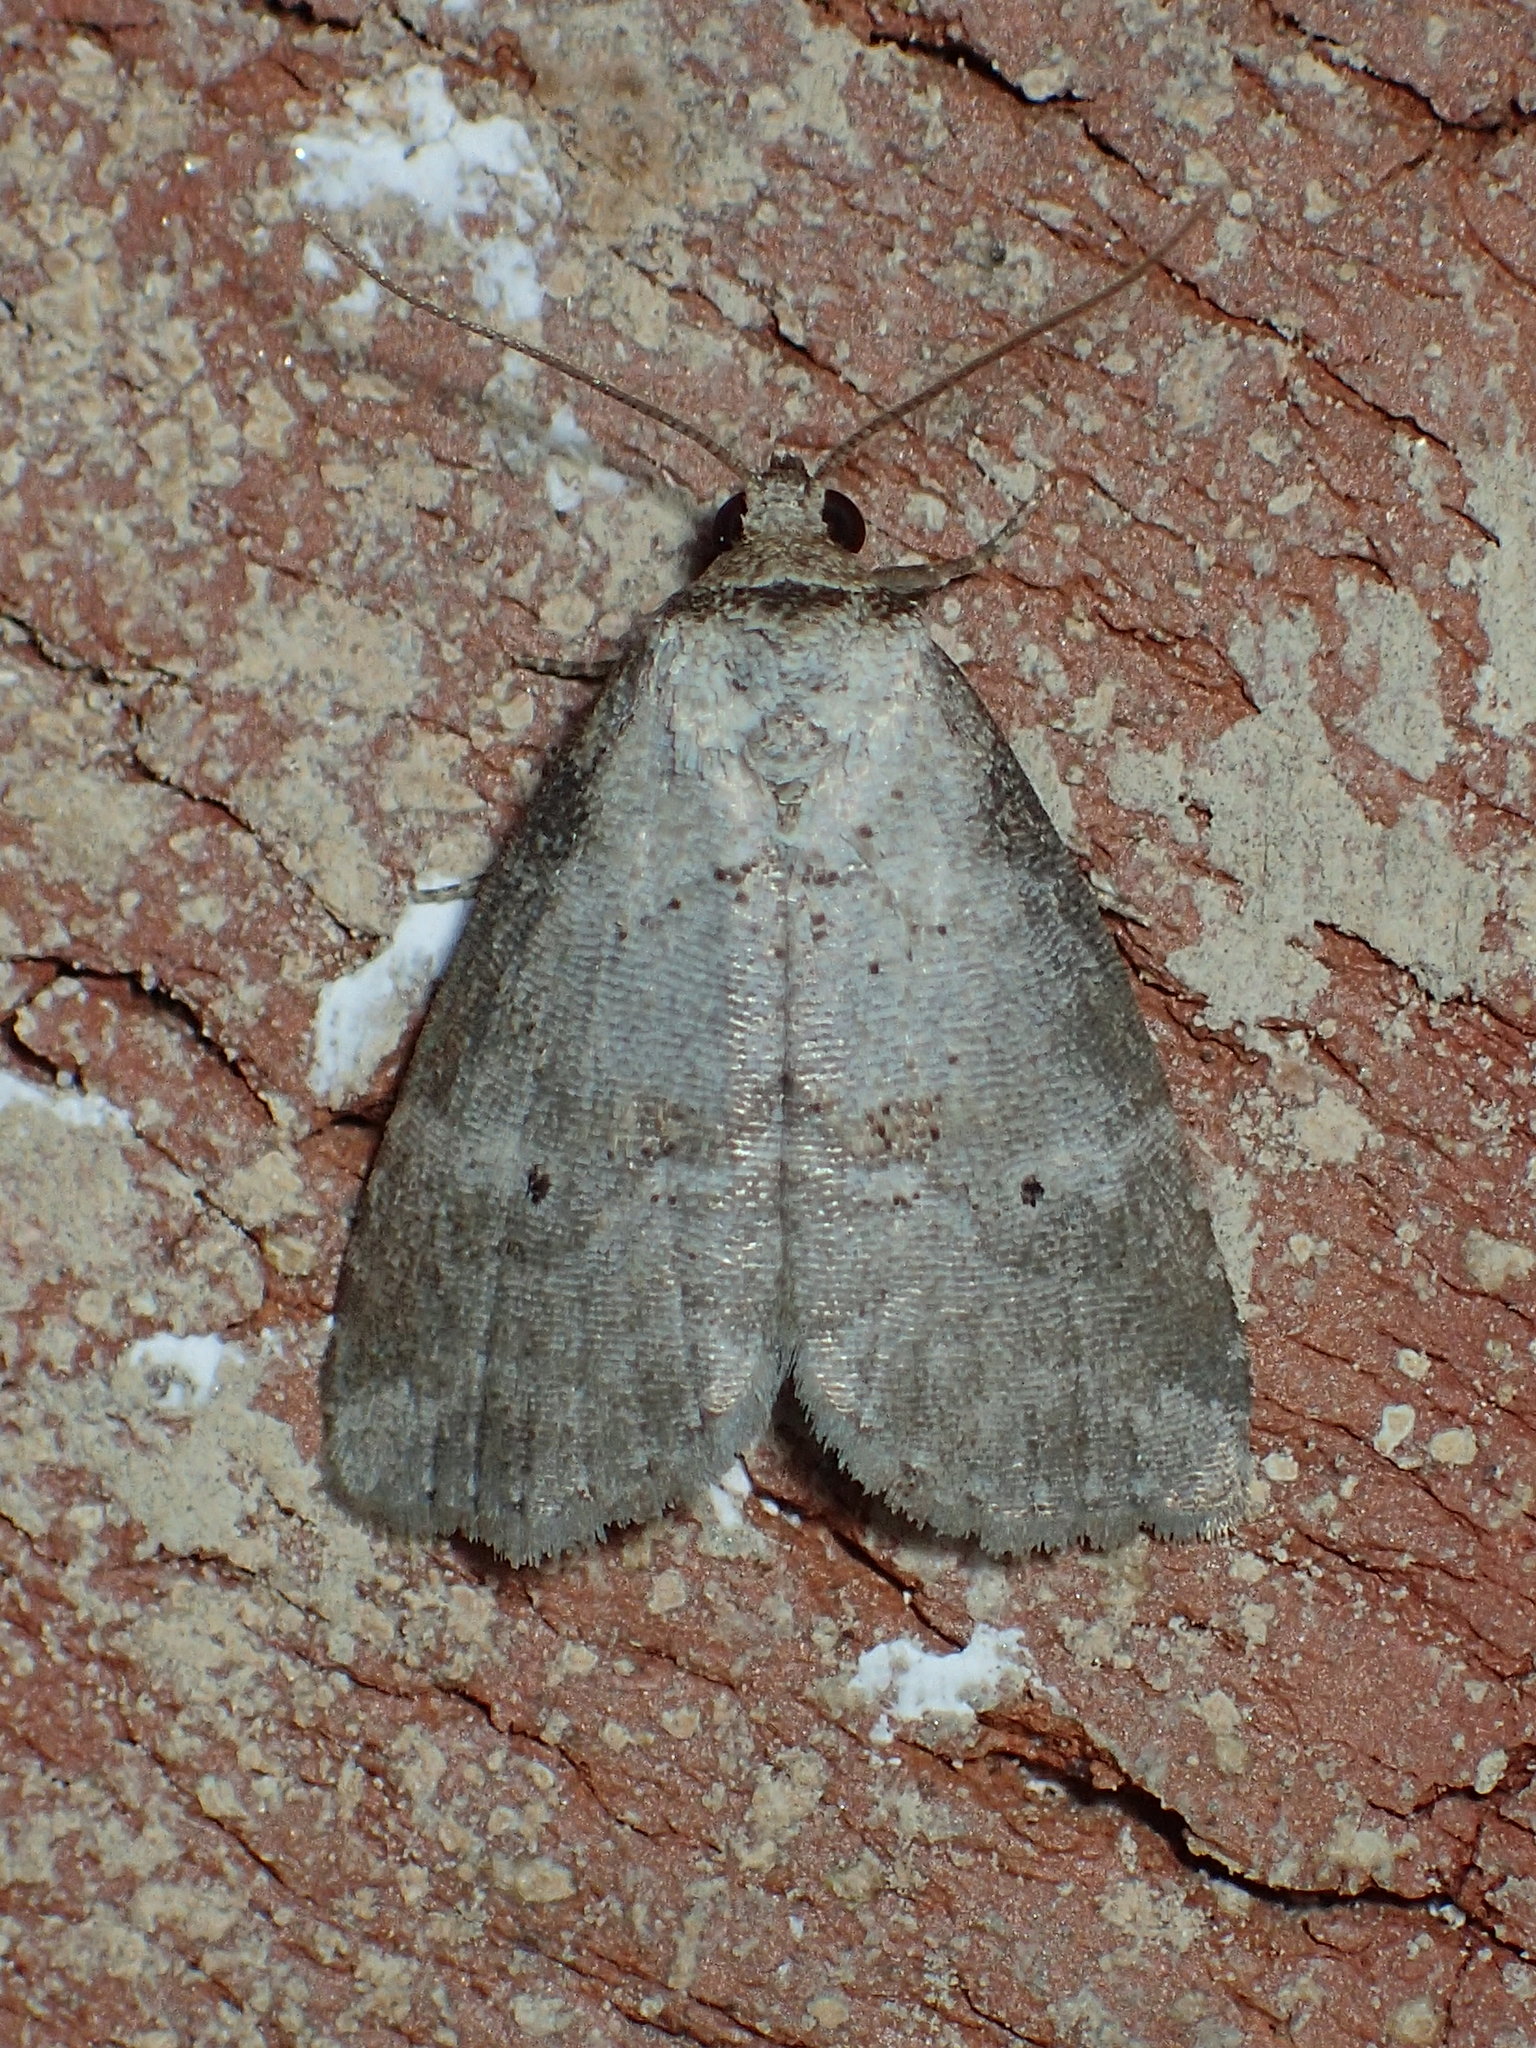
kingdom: Animalia
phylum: Arthropoda
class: Insecta
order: Lepidoptera
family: Erebidae
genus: Hyperstrotia
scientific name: Hyperstrotia pervertens
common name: Dotted graylet
